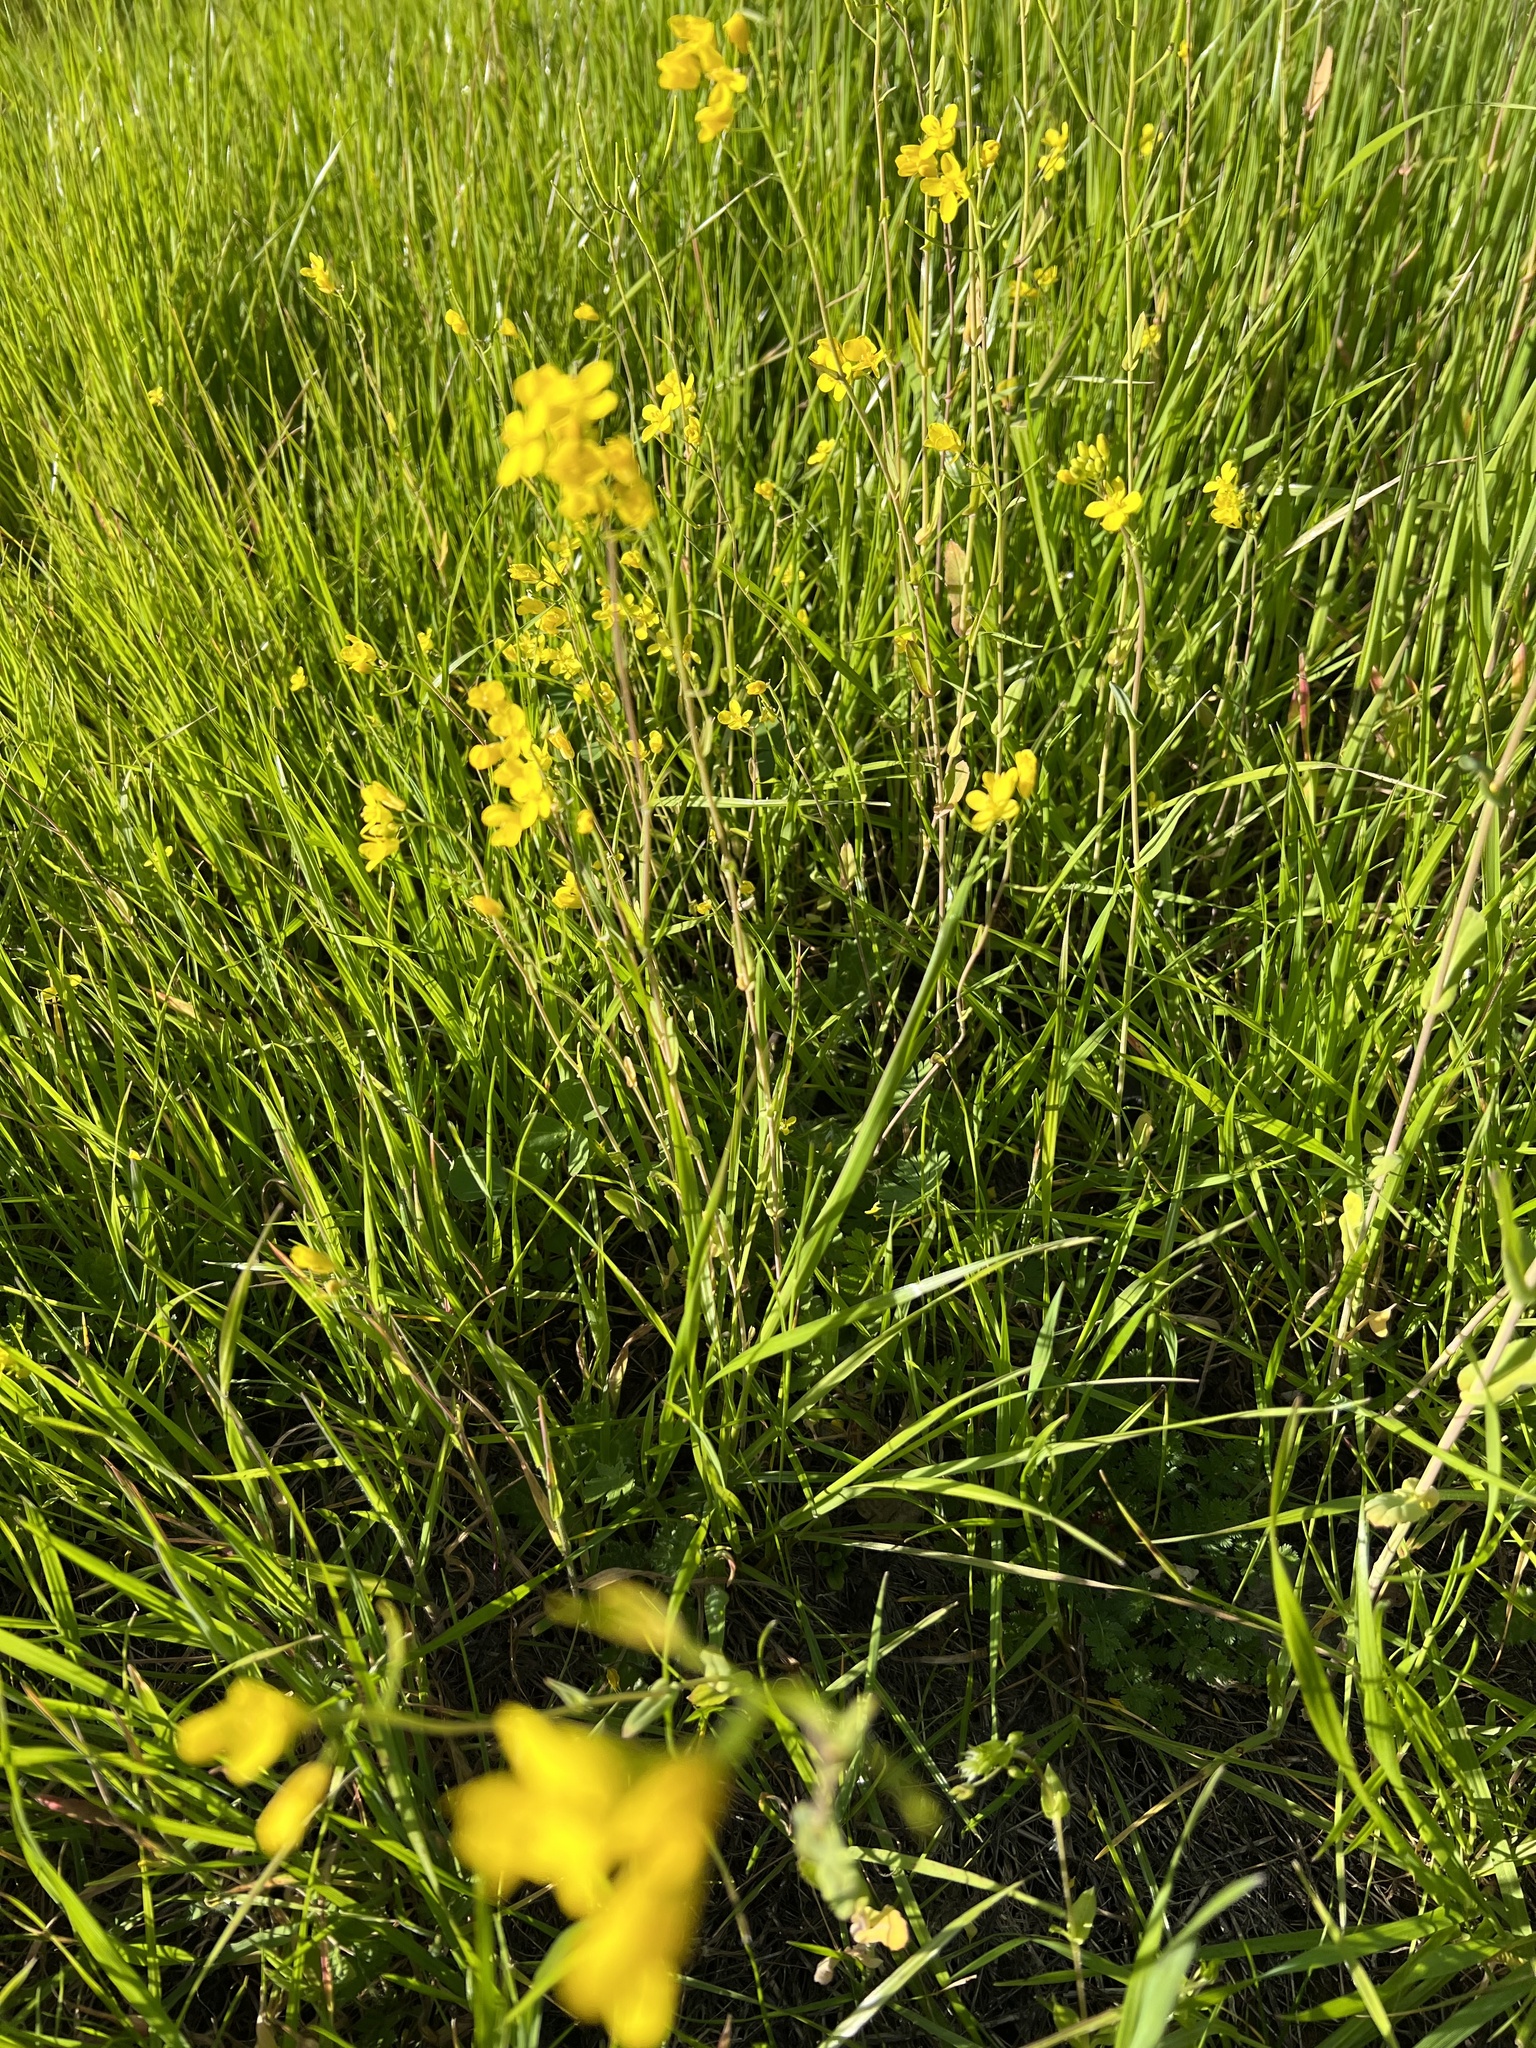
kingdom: Plantae
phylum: Tracheophyta
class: Magnoliopsida
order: Brassicales
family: Brassicaceae
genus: Brassica
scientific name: Brassica rapa
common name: Field mustard
